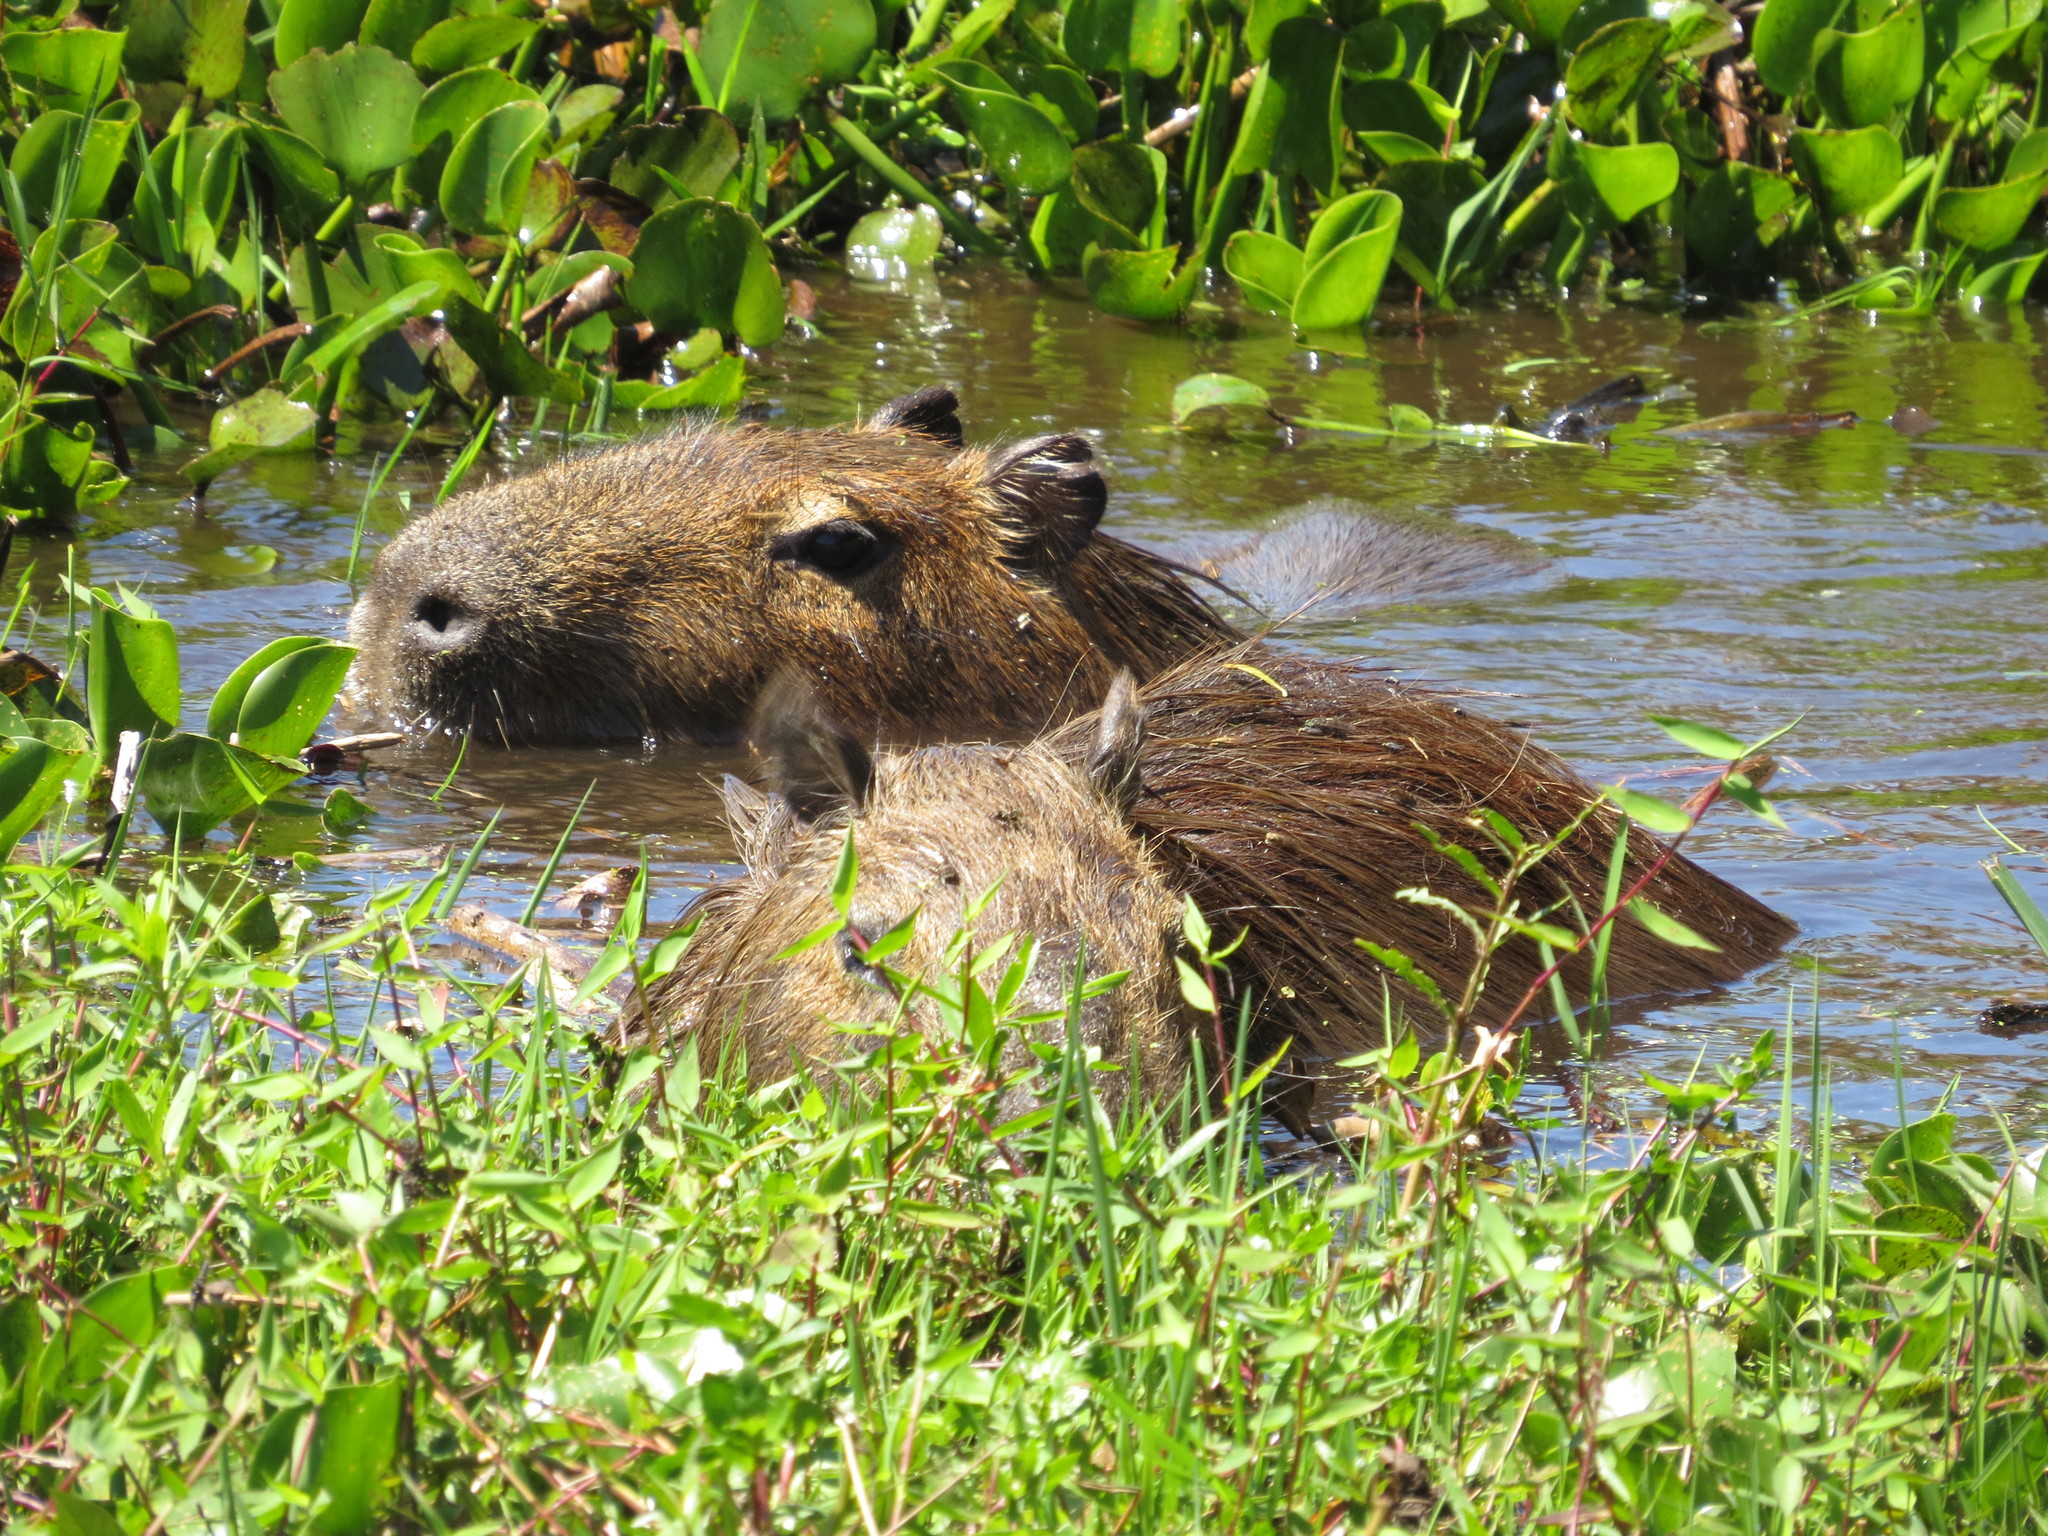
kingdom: Animalia
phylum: Chordata
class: Mammalia
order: Rodentia
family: Caviidae
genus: Hydrochoerus
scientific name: Hydrochoerus hydrochaeris
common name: Capybara
